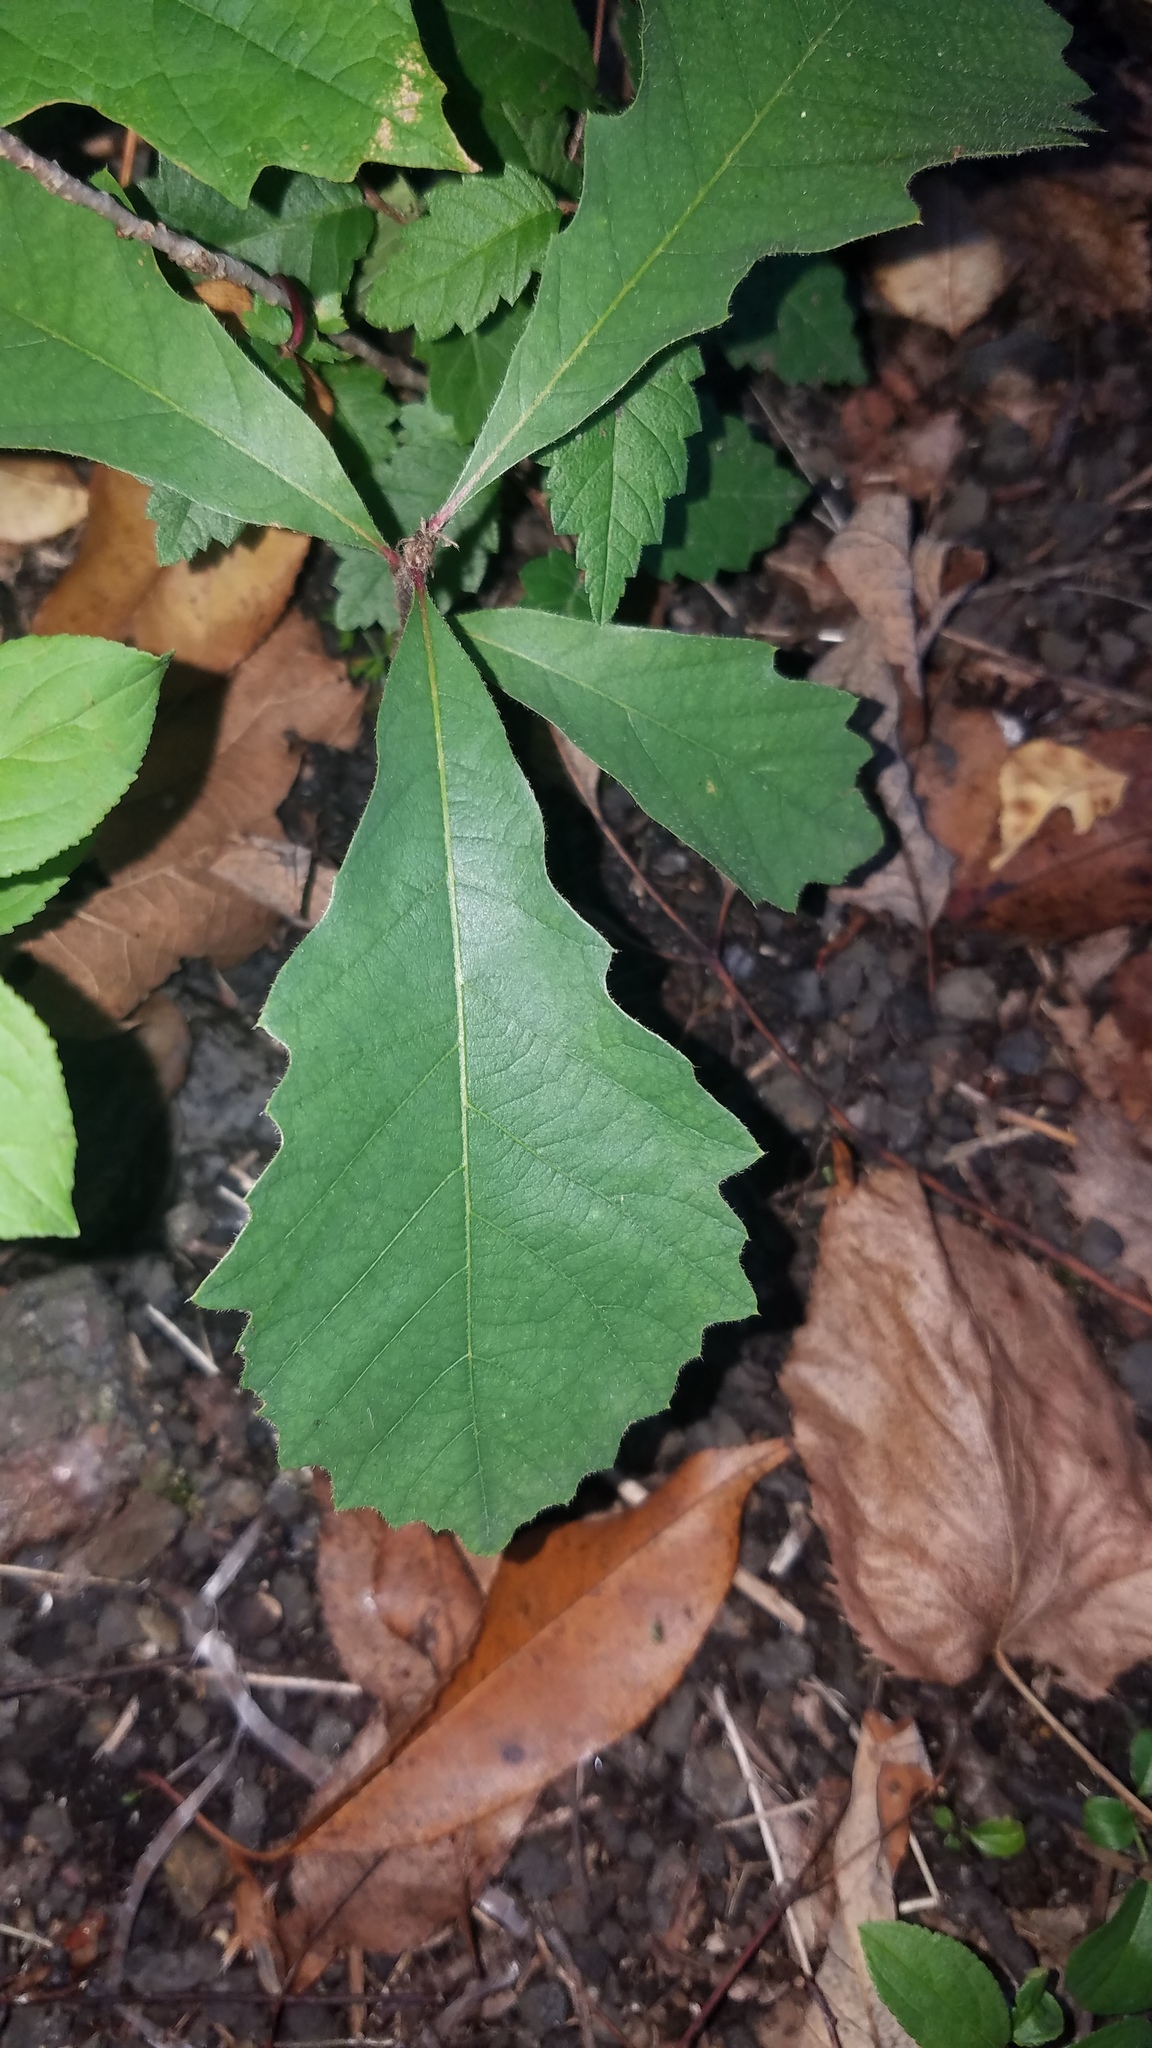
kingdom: Plantae
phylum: Tracheophyta
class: Magnoliopsida
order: Fagales
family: Fagaceae
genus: Quercus
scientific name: Quercus macrocarpa
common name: Bur oak
